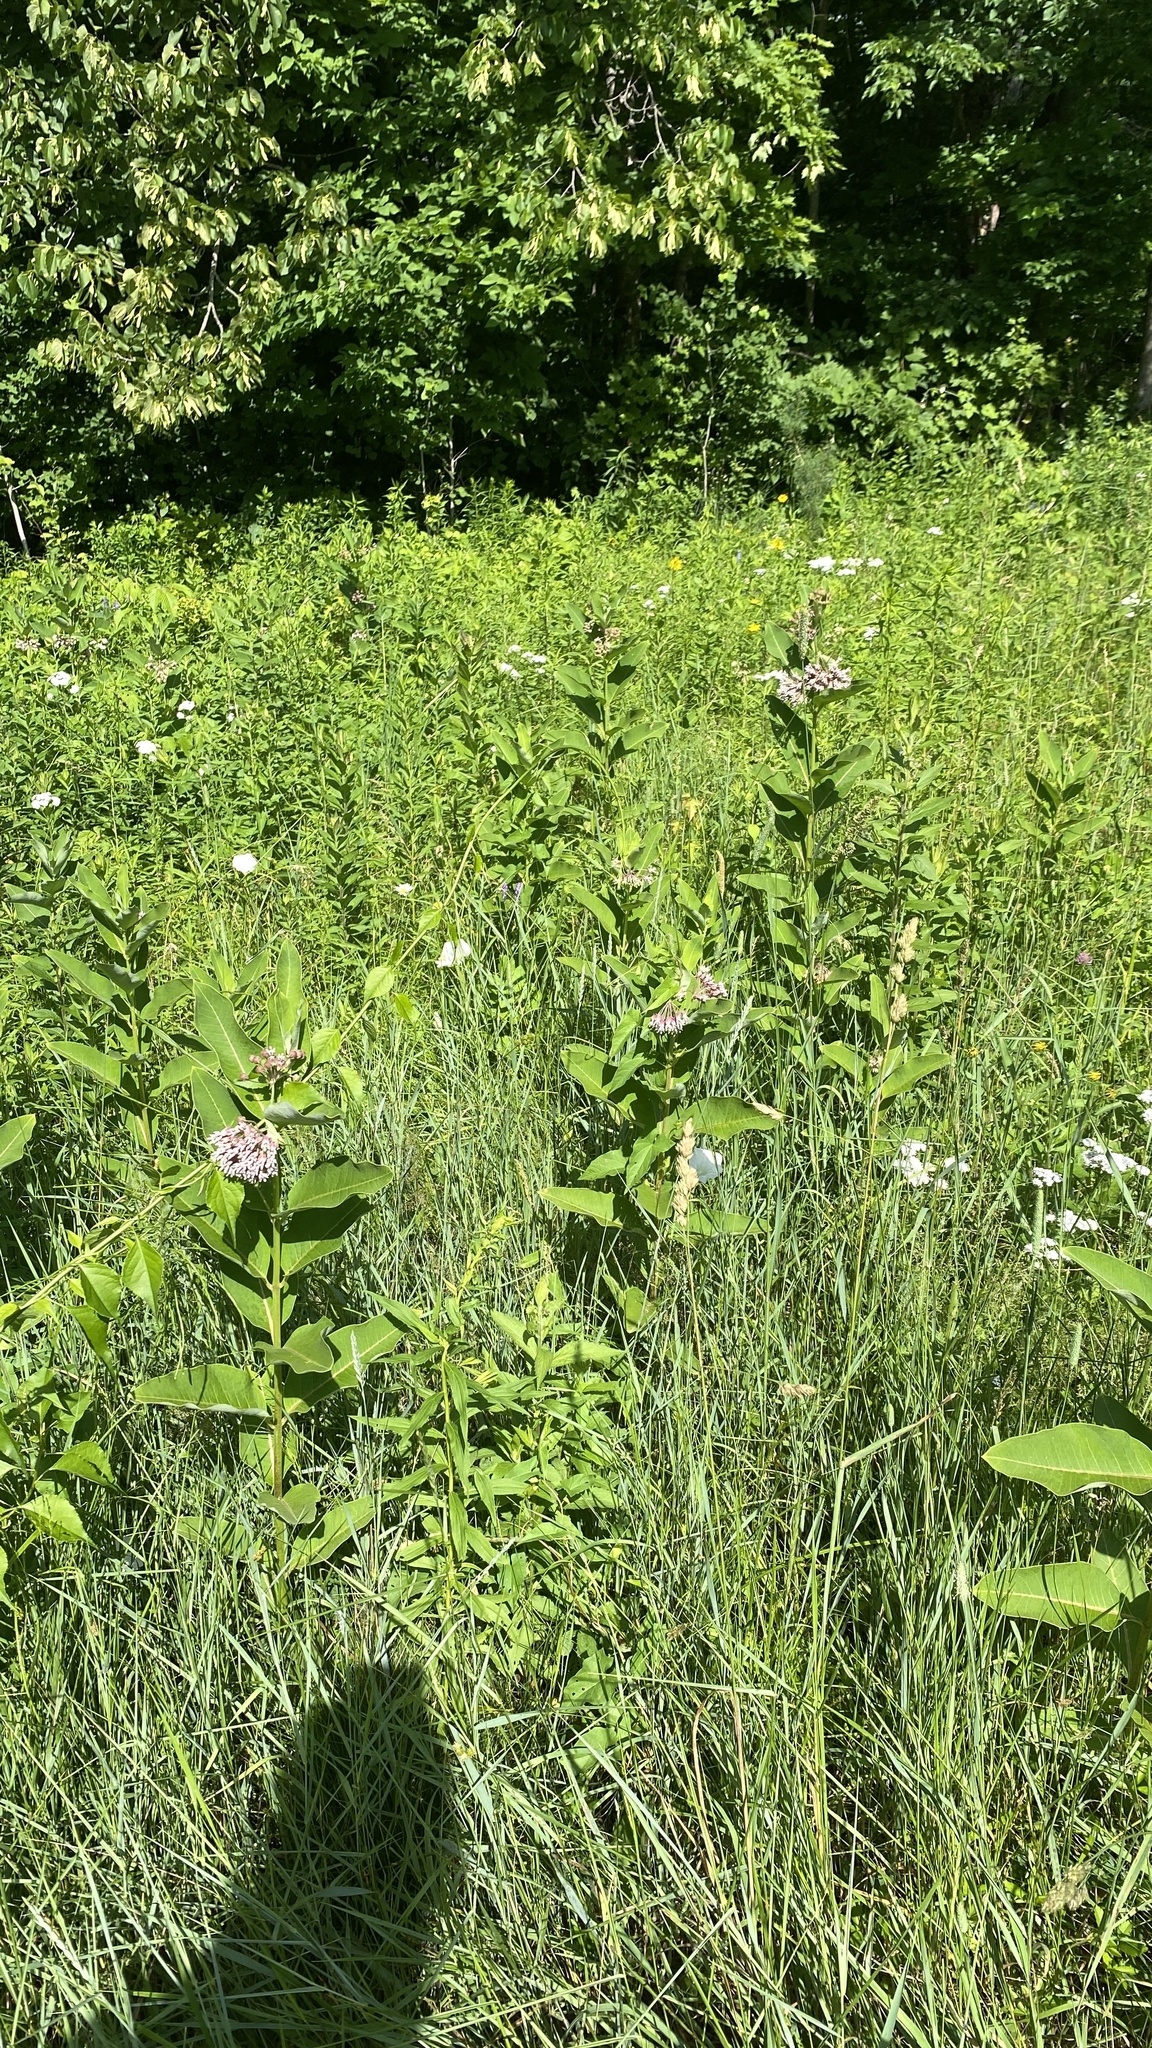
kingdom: Plantae
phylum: Tracheophyta
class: Magnoliopsida
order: Gentianales
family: Apocynaceae
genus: Asclepias
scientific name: Asclepias syriaca
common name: Common milkweed
